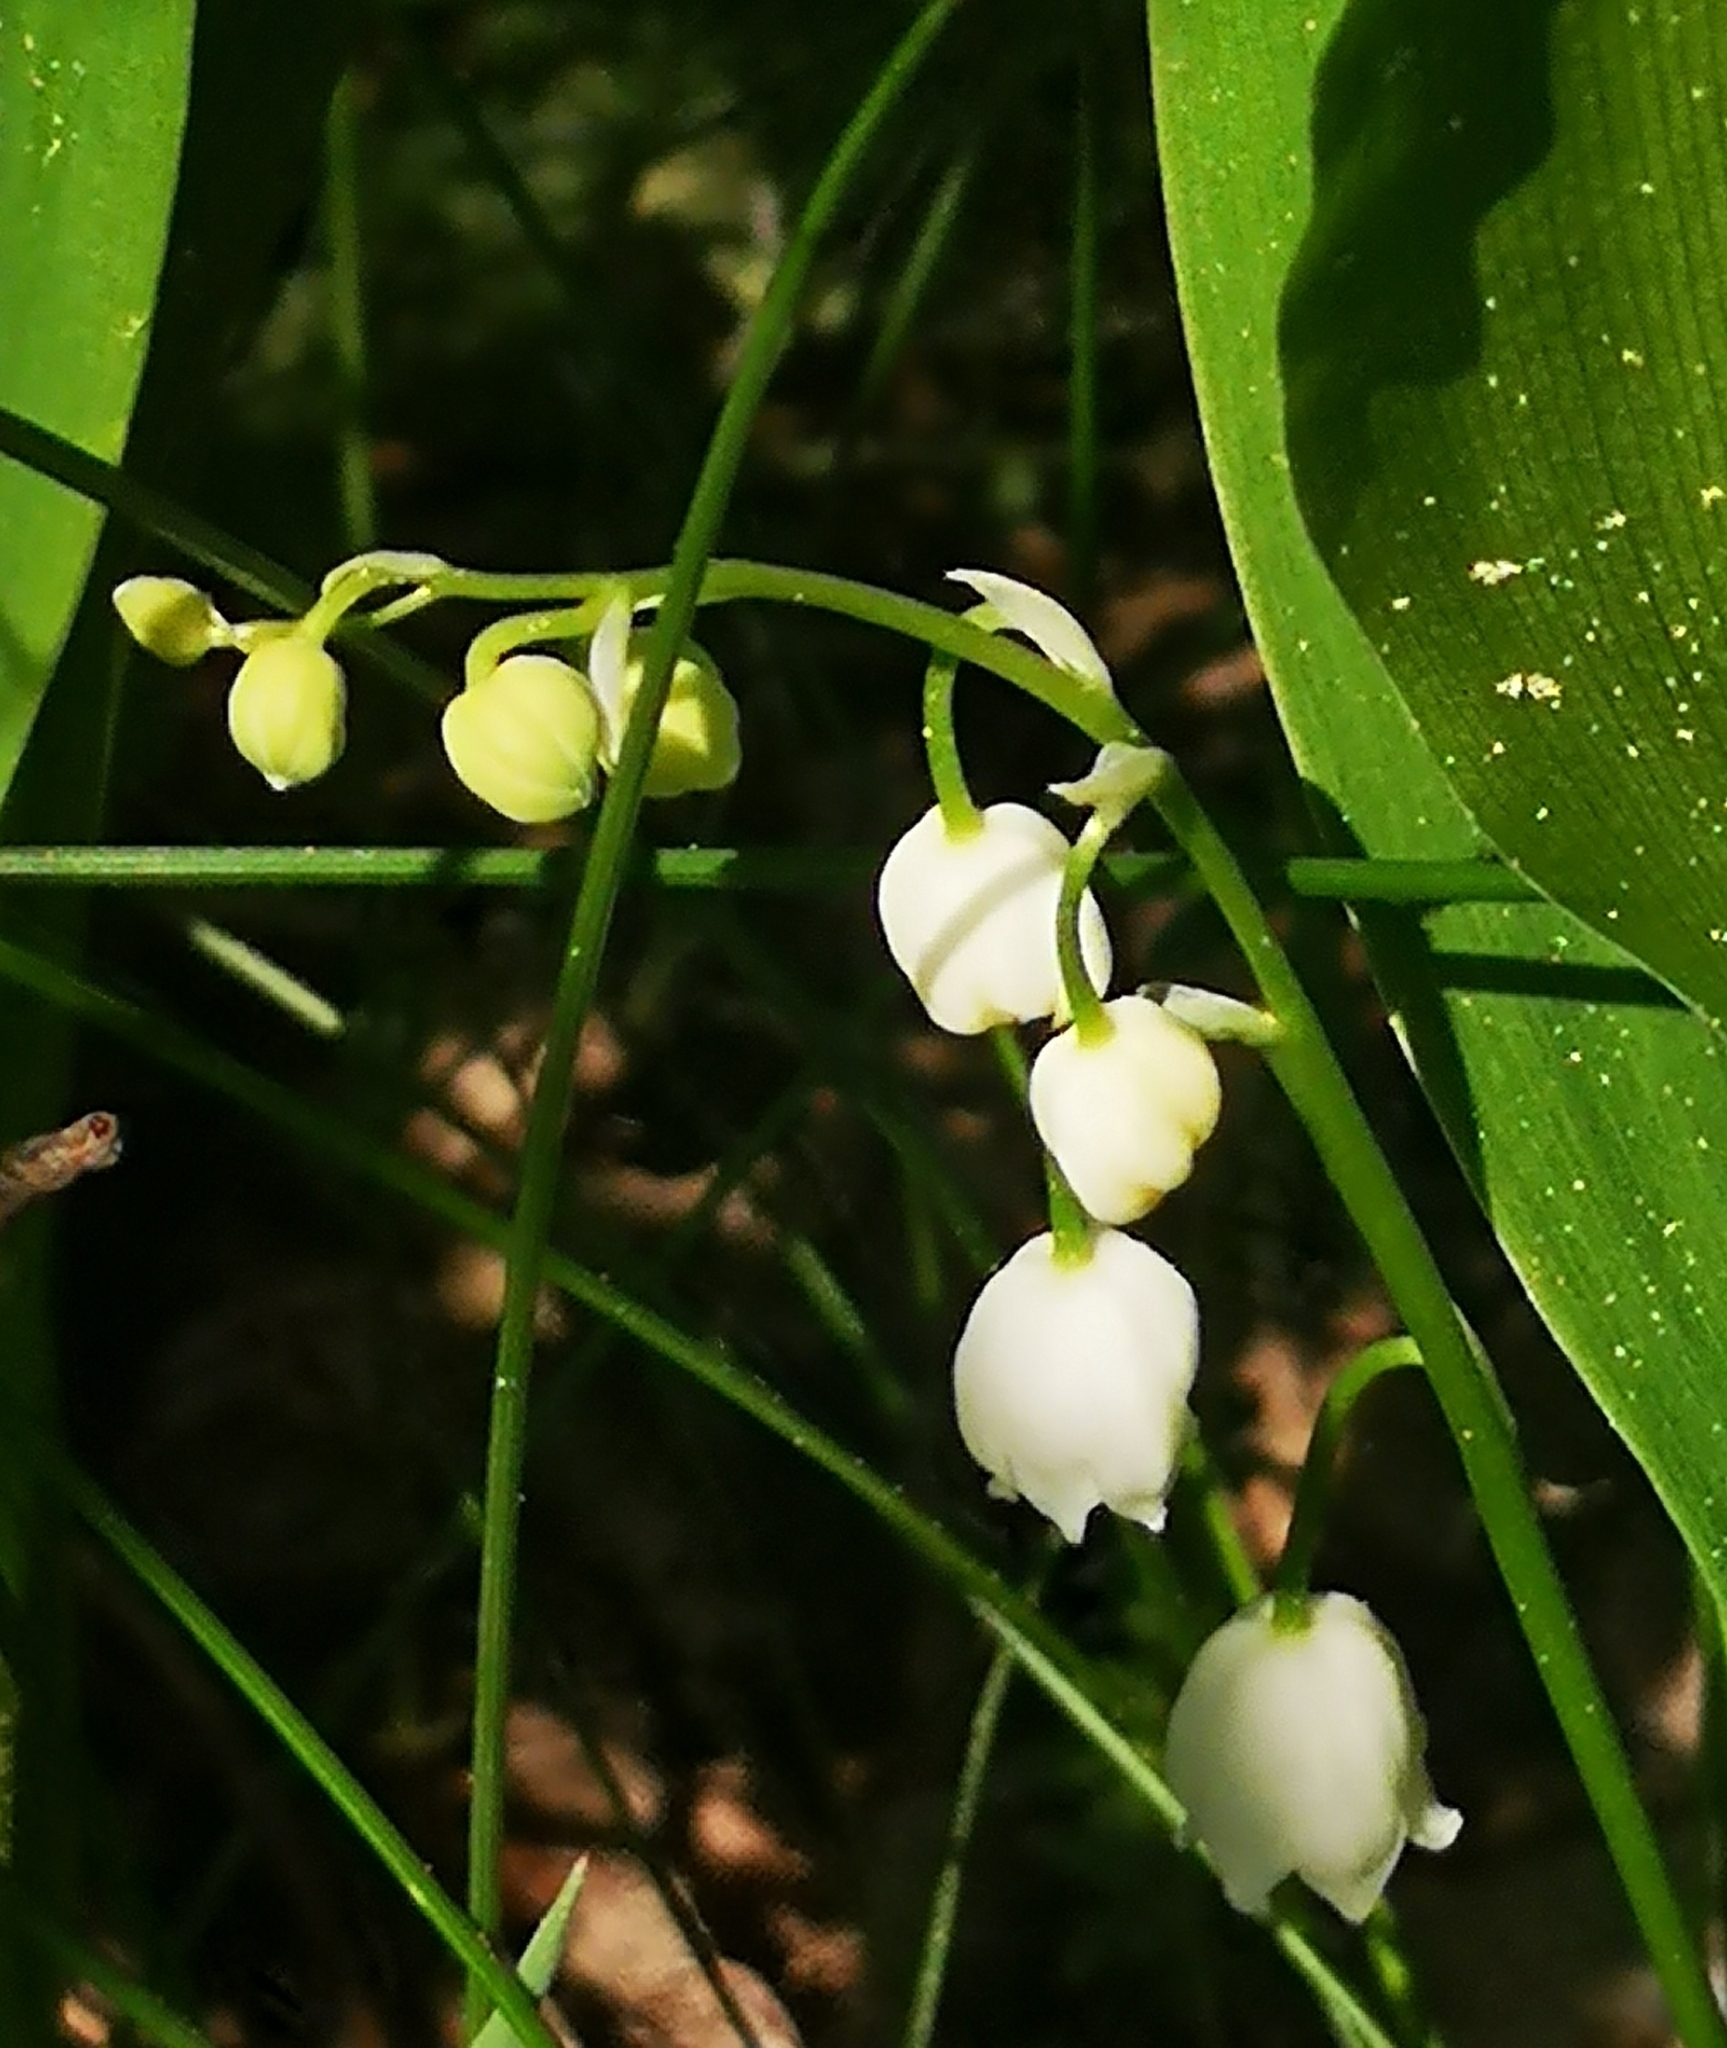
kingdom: Plantae
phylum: Tracheophyta
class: Liliopsida
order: Asparagales
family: Asparagaceae
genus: Convallaria
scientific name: Convallaria majalis
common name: Lily-of-the-valley
